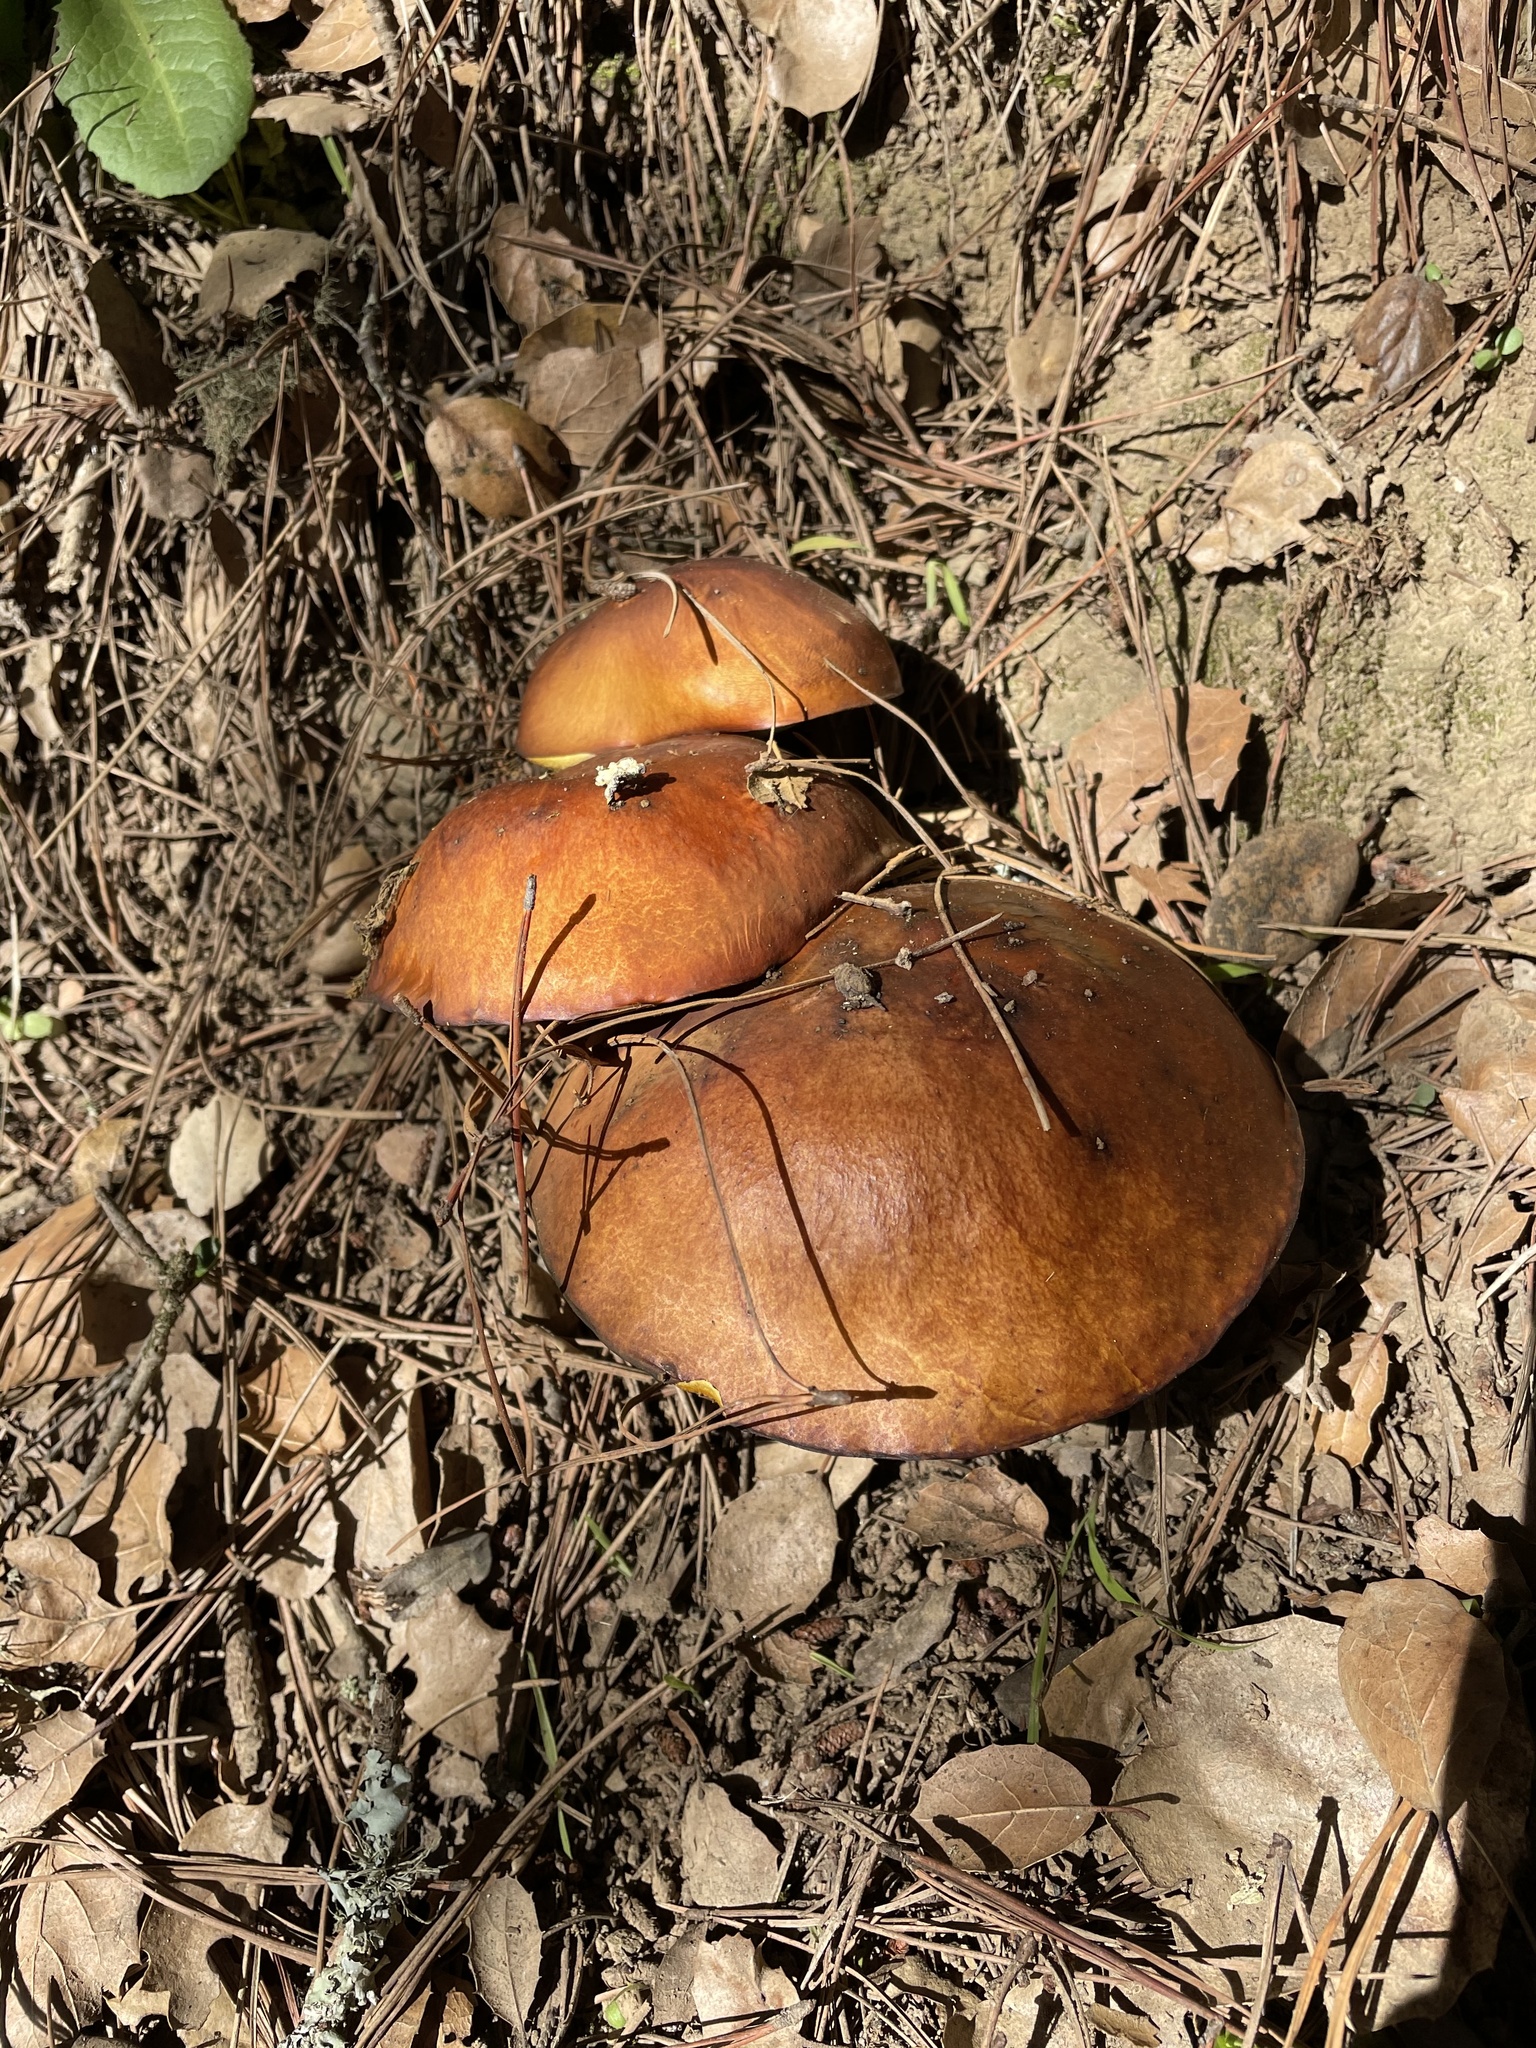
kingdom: Fungi
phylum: Basidiomycota
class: Agaricomycetes
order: Boletales
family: Suillaceae
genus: Suillus
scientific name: Suillus pungens
